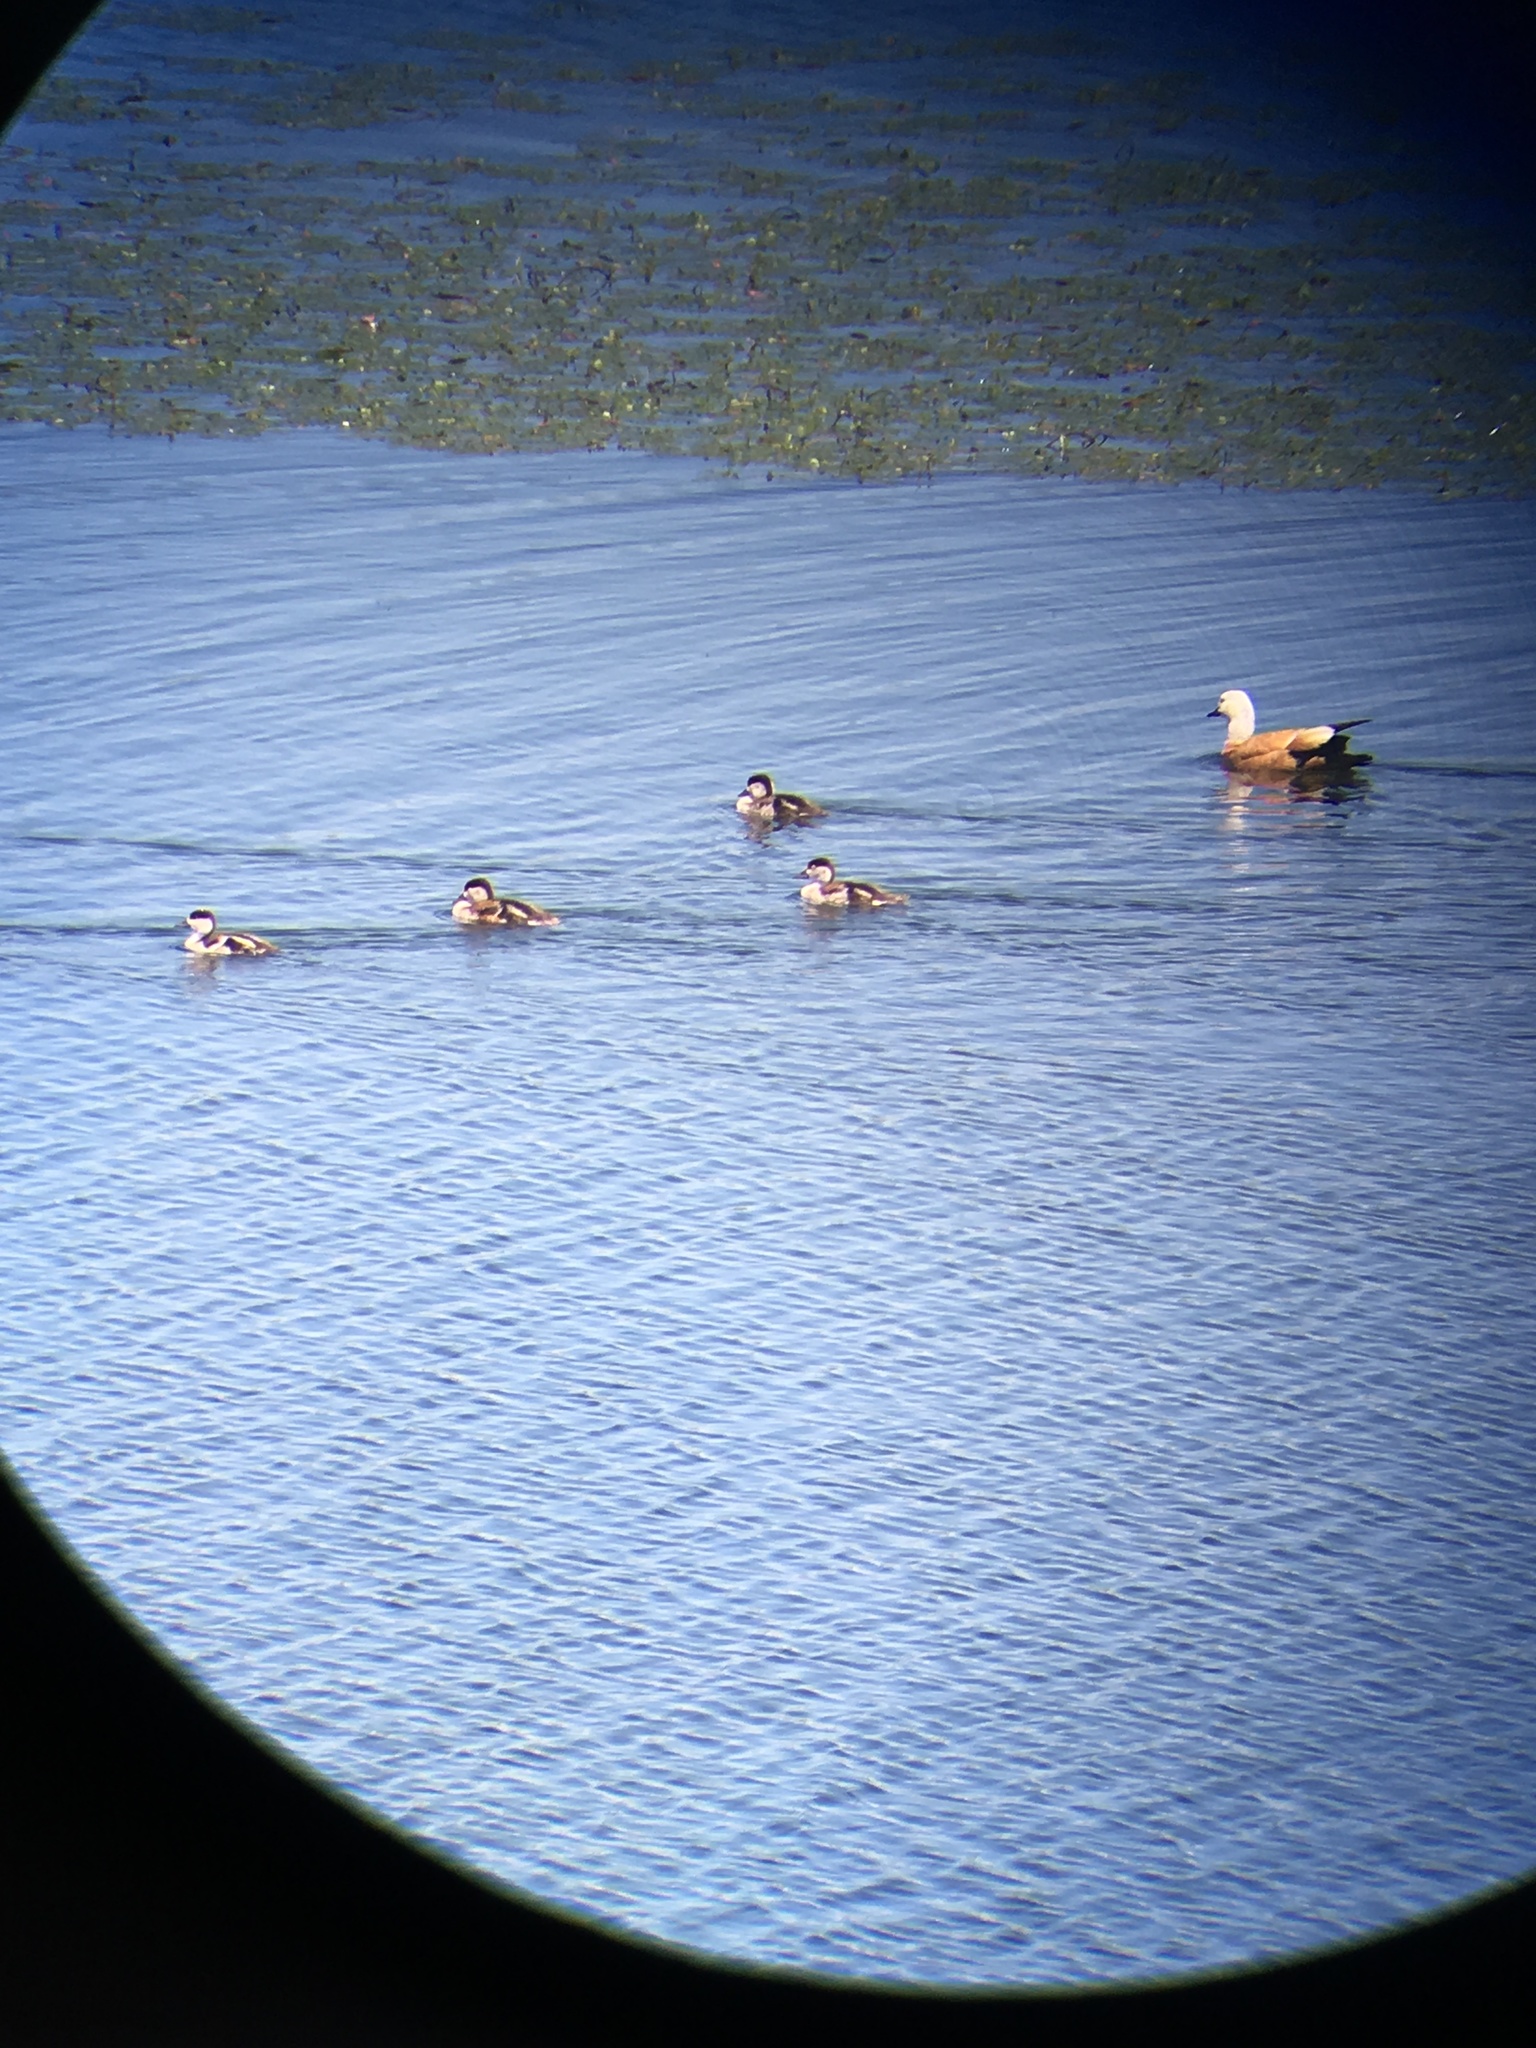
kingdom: Animalia
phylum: Chordata
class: Aves
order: Anseriformes
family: Anatidae
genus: Tadorna
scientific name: Tadorna ferruginea
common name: Ruddy shelduck
